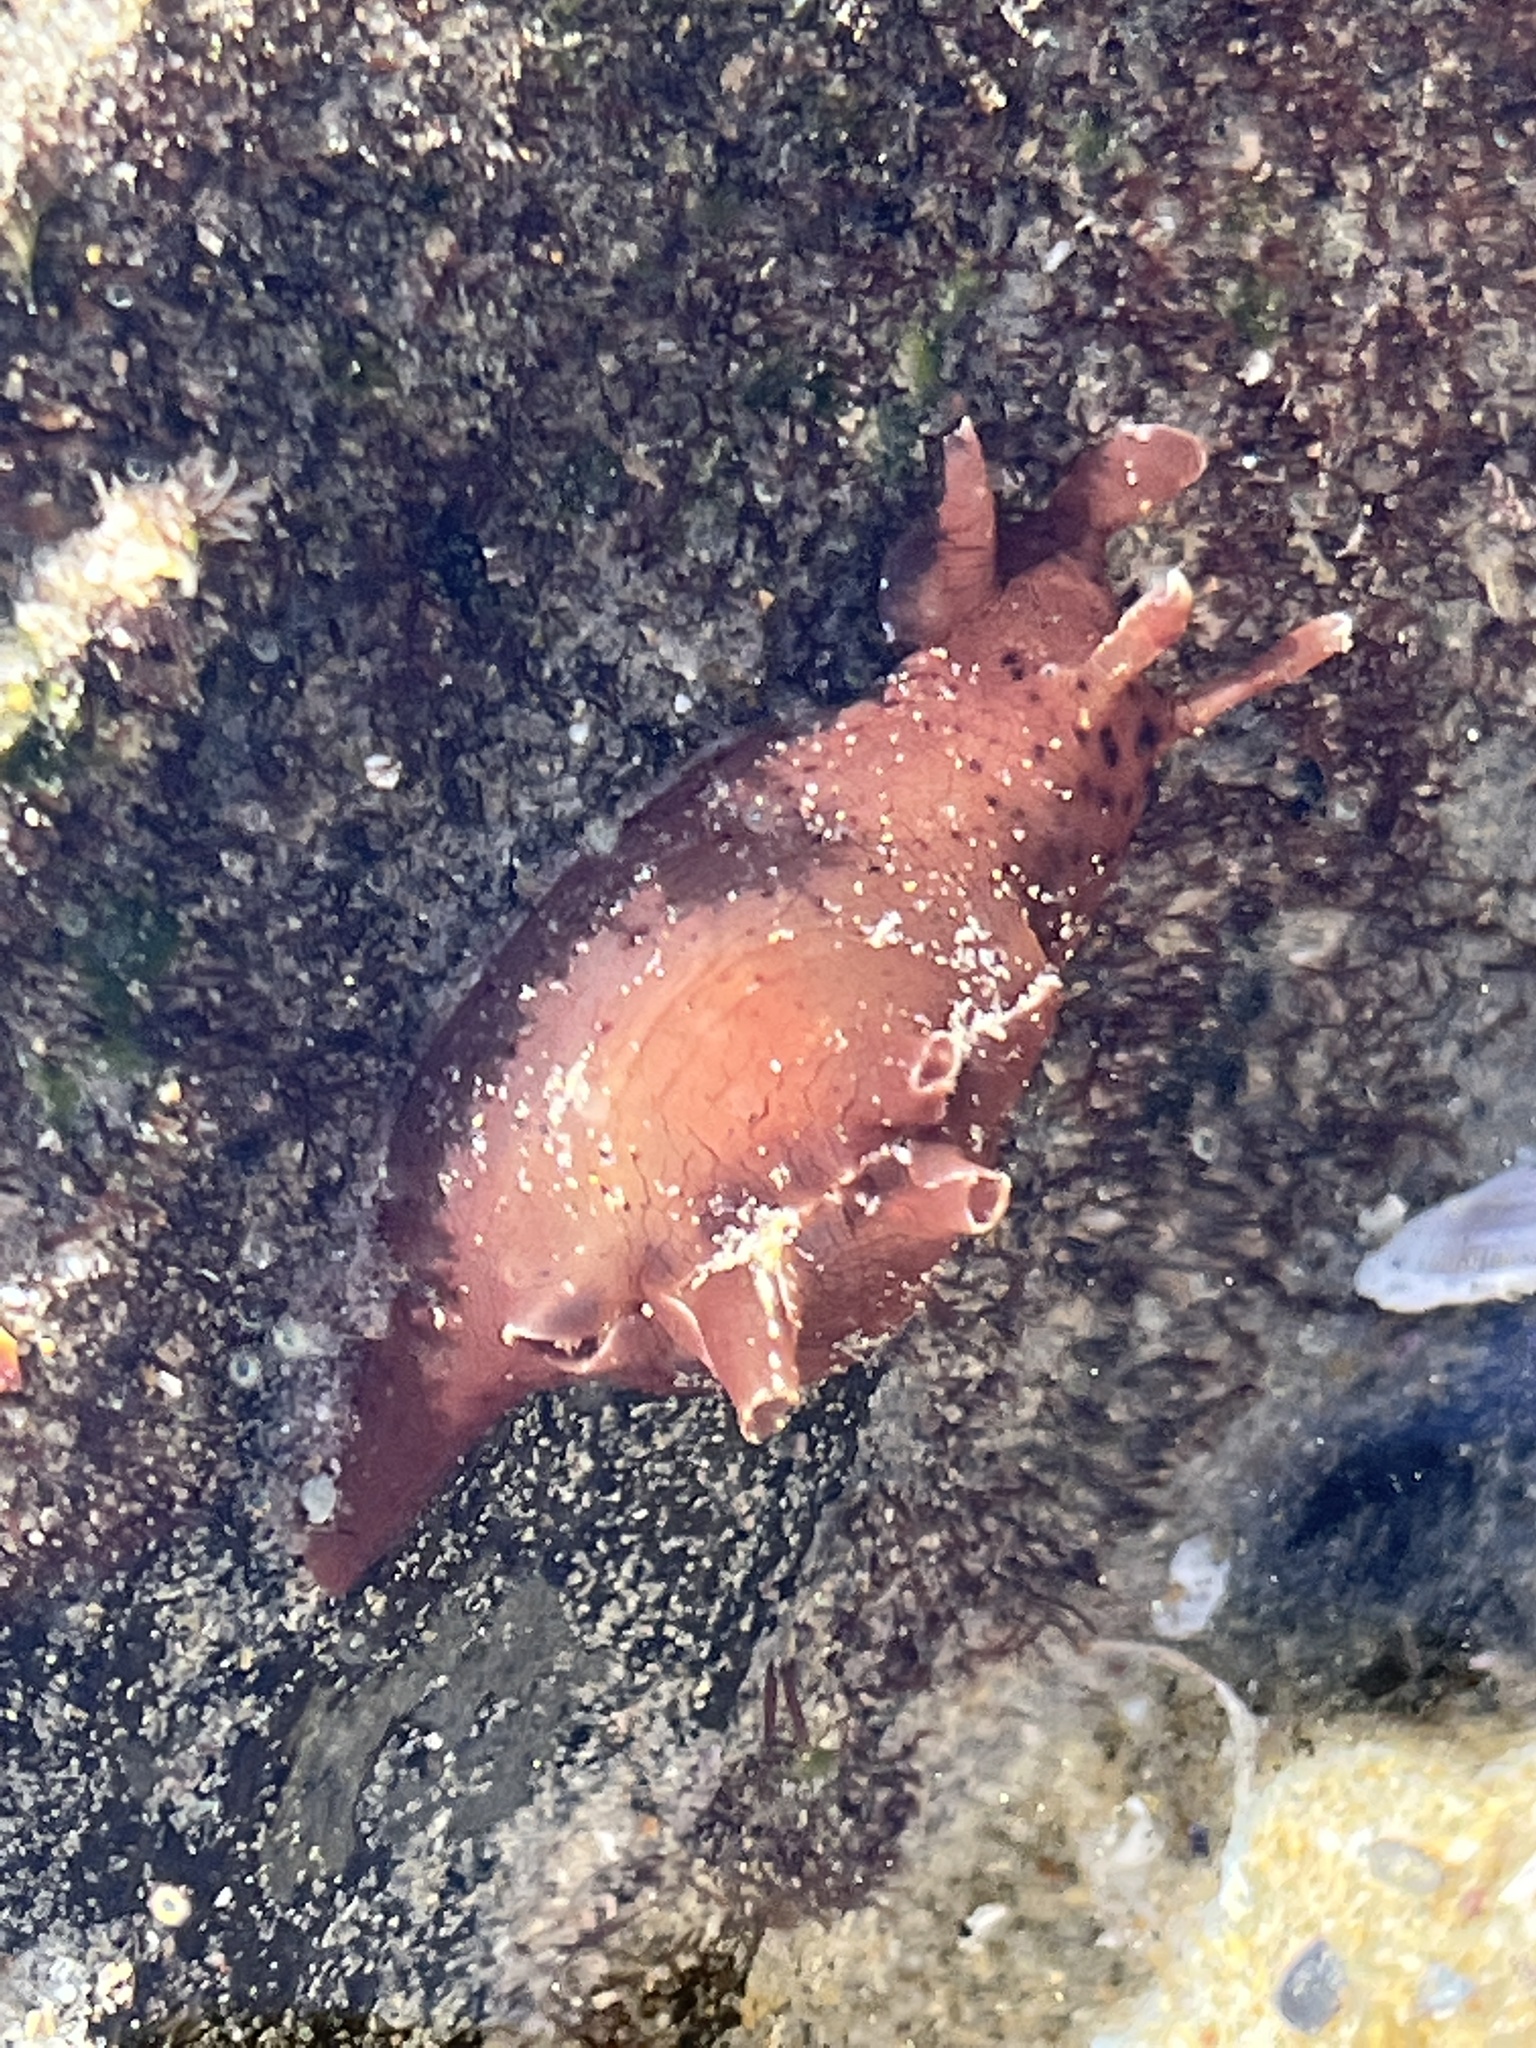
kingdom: Animalia
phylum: Mollusca
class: Gastropoda
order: Aplysiida
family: Aplysiidae
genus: Aplysia
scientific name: Aplysia californica
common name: California seahare
